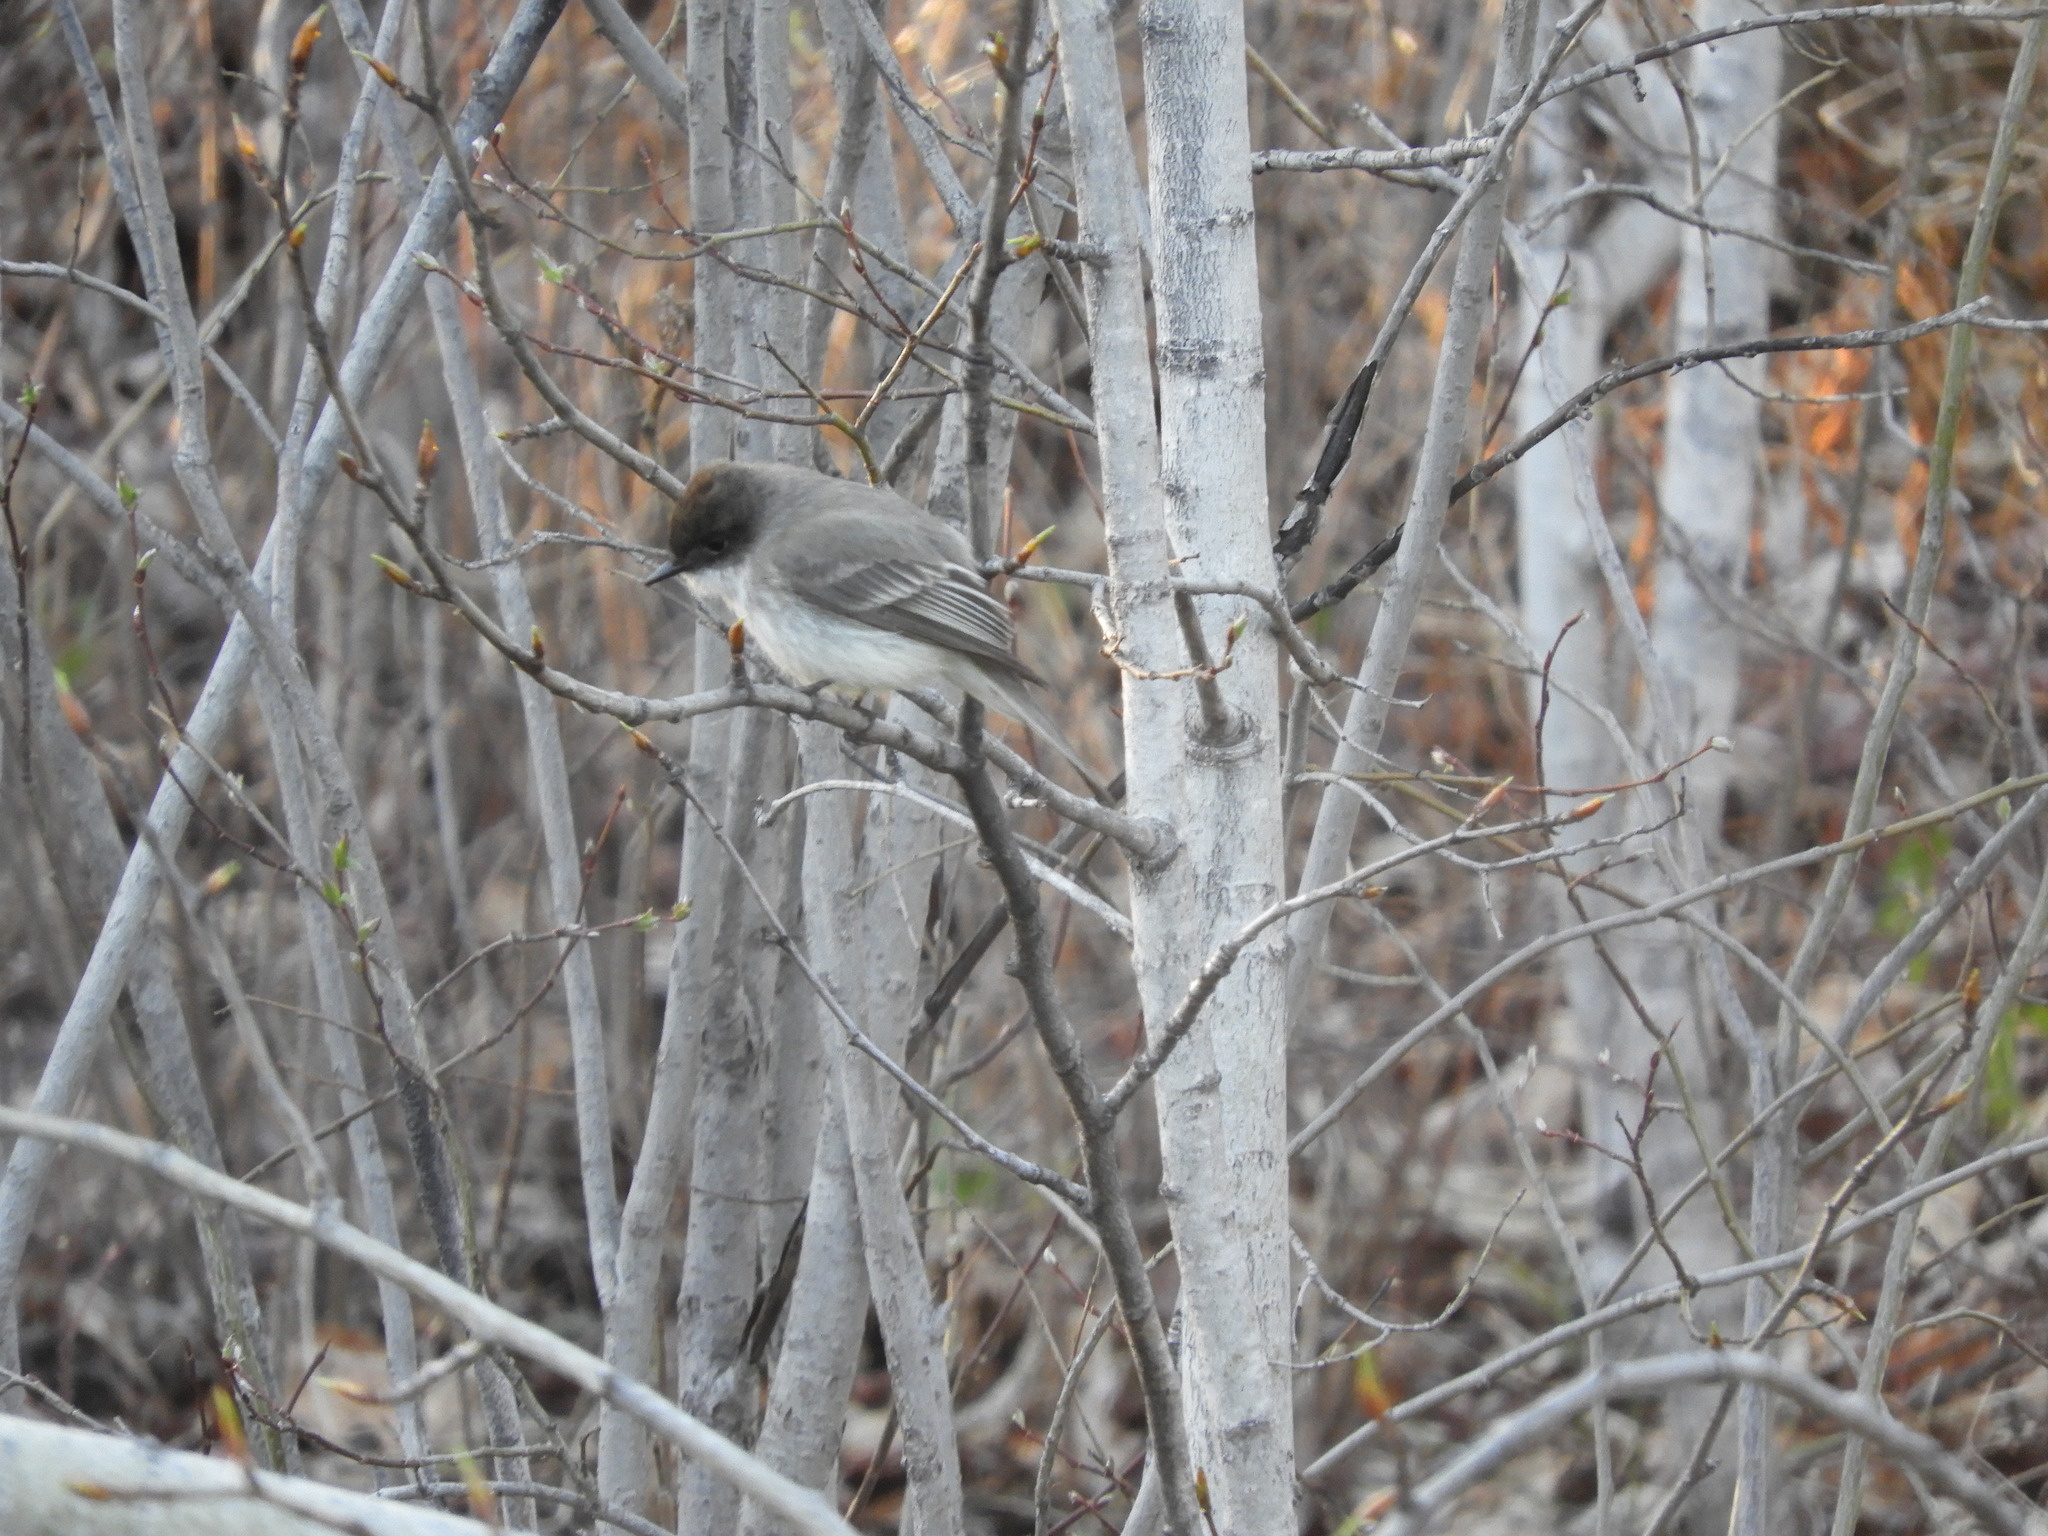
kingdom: Animalia
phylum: Chordata
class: Aves
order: Passeriformes
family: Tyrannidae
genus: Sayornis
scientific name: Sayornis phoebe
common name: Eastern phoebe
